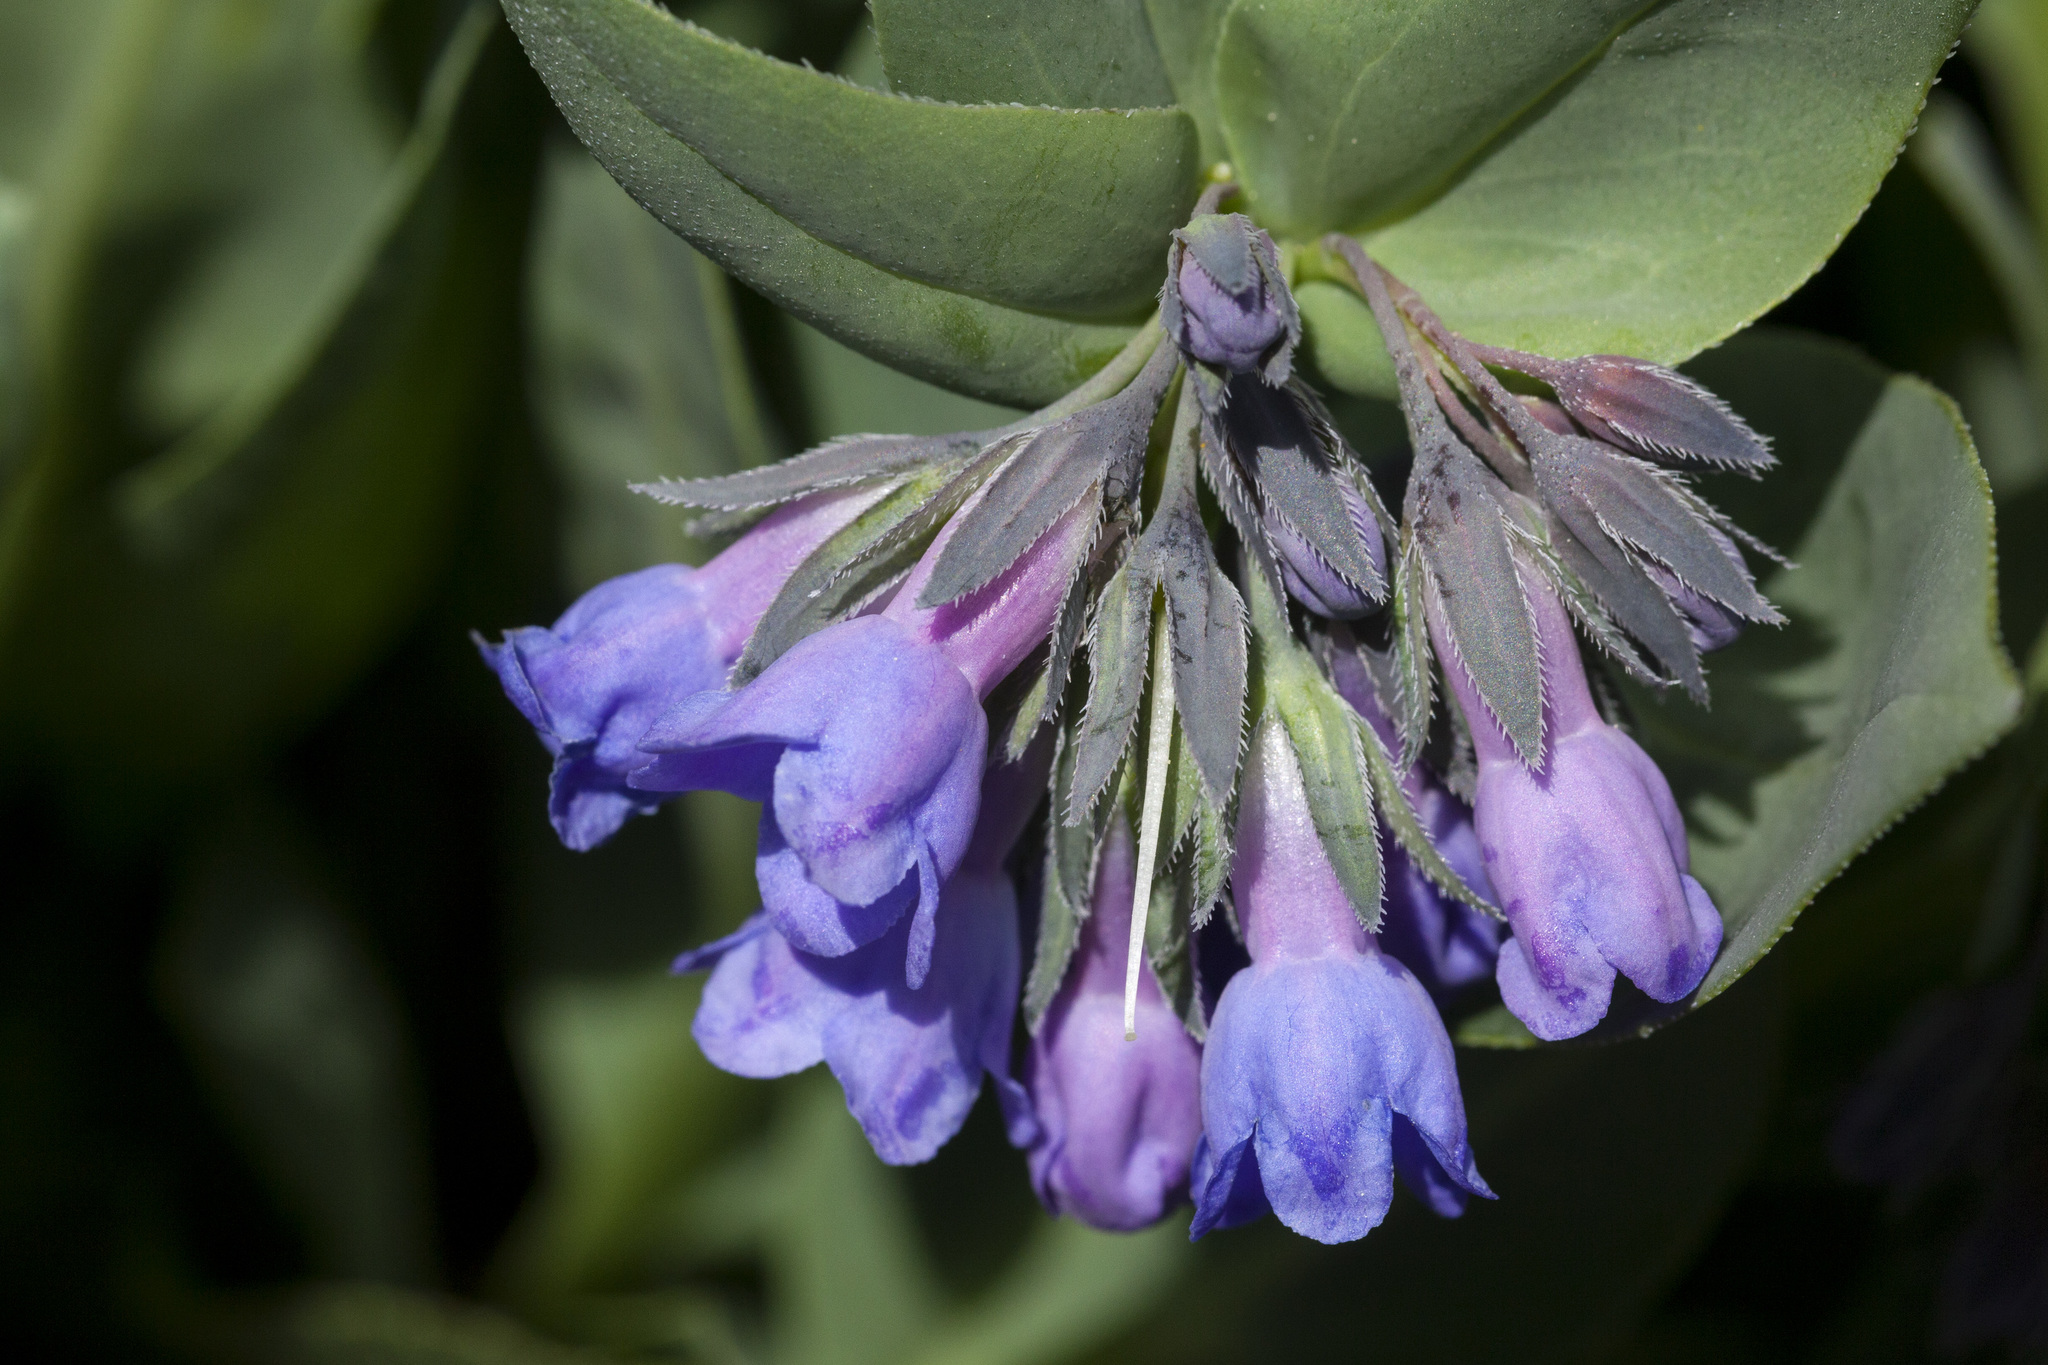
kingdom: Plantae
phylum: Tracheophyta
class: Magnoliopsida
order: Boraginales
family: Boraginaceae
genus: Mertensia
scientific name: Mertensia ovata
